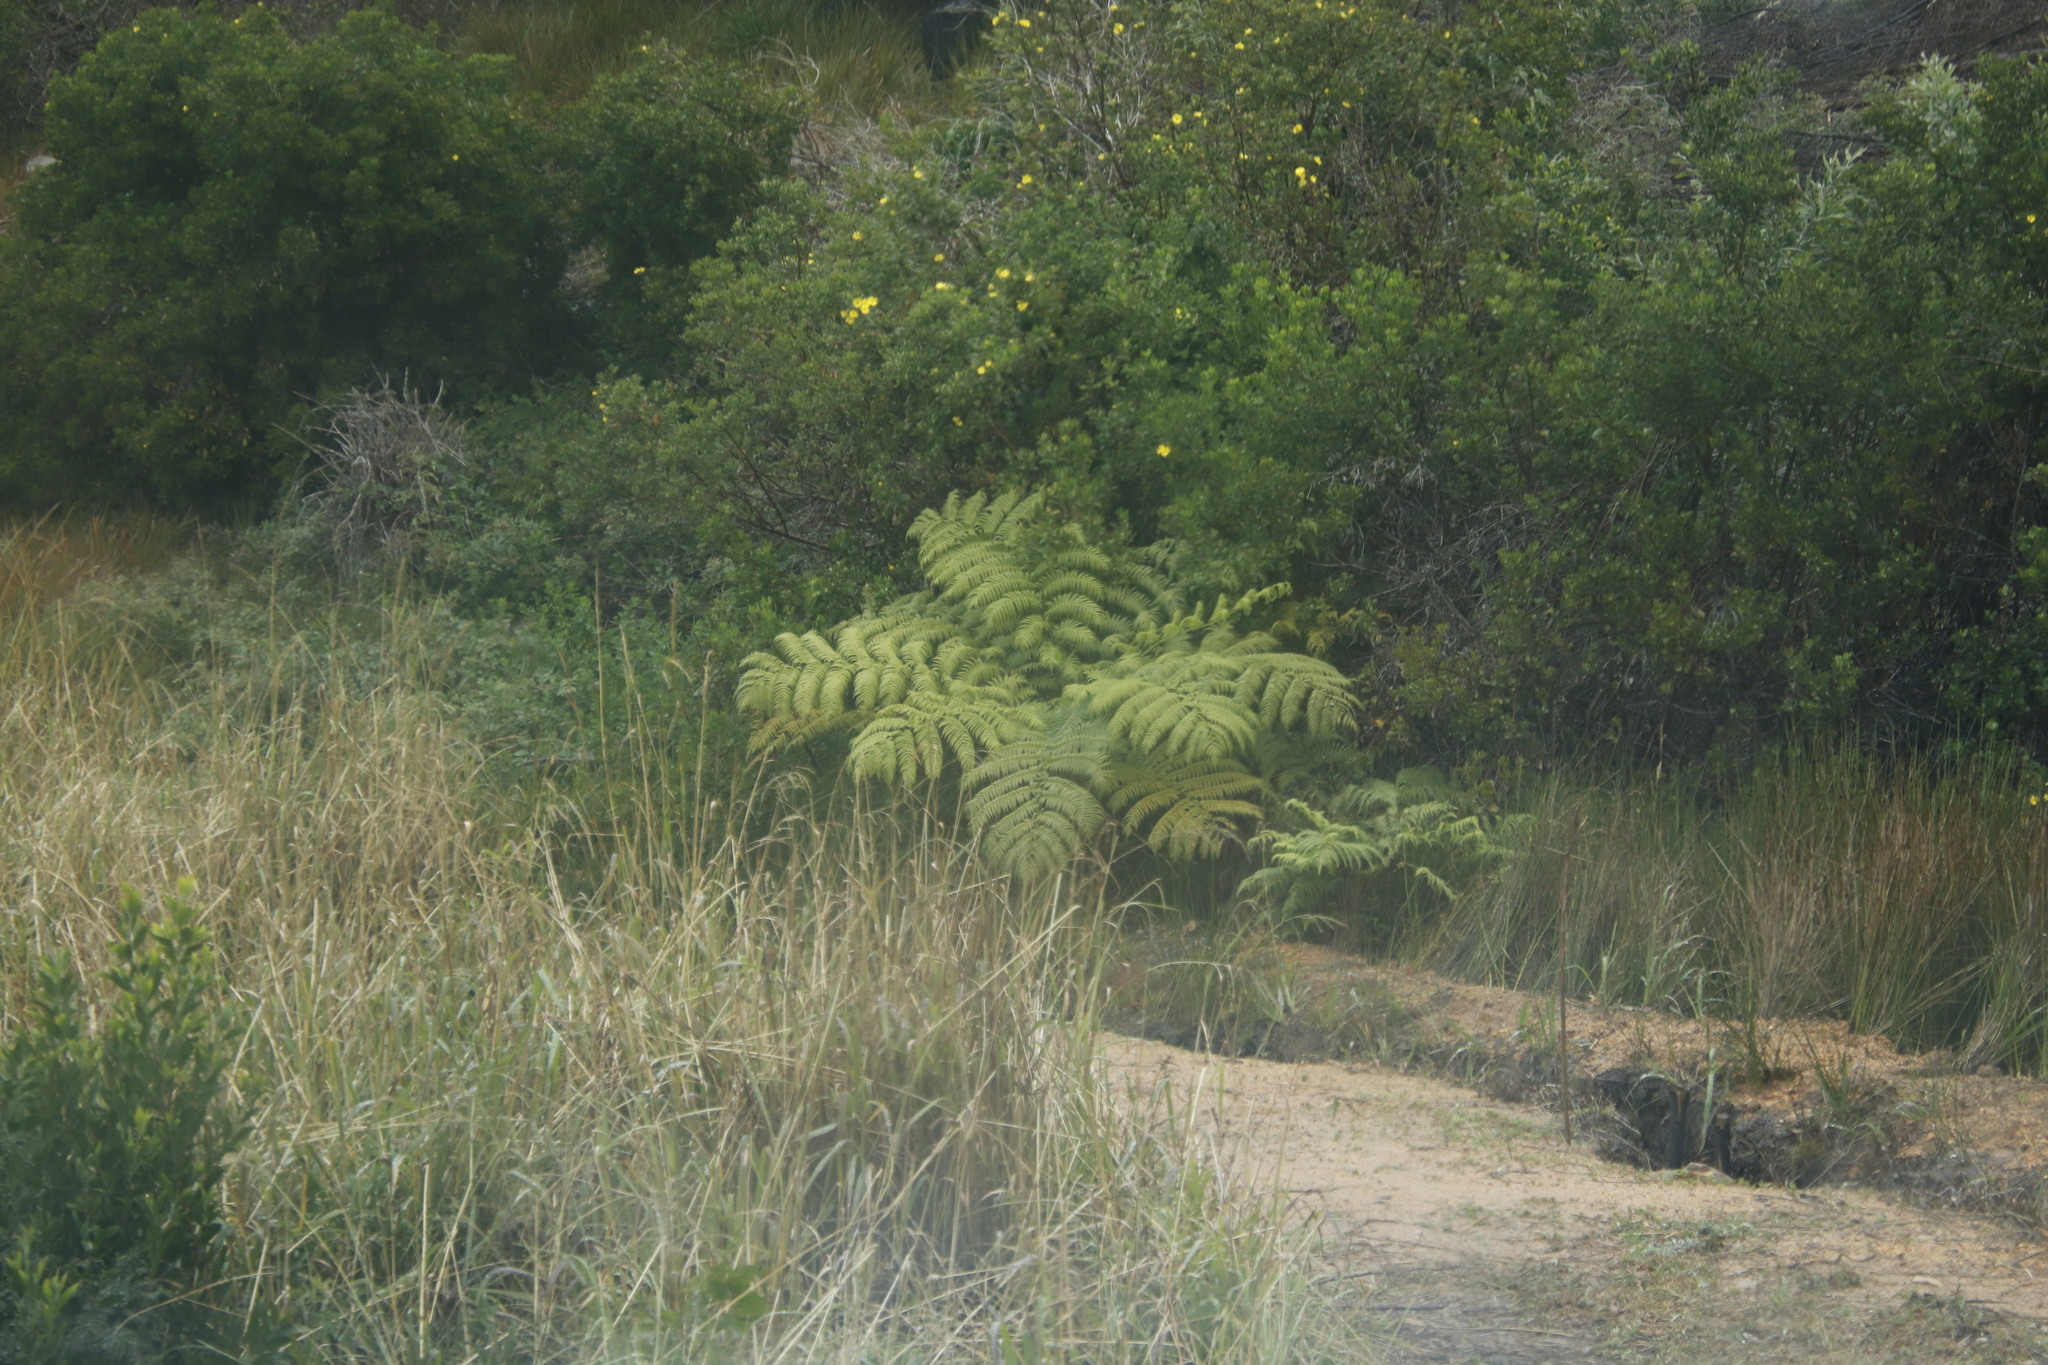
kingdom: Plantae
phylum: Tracheophyta
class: Polypodiopsida
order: Cyatheales
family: Cyatheaceae
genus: Sphaeropteris
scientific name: Sphaeropteris cooperi
